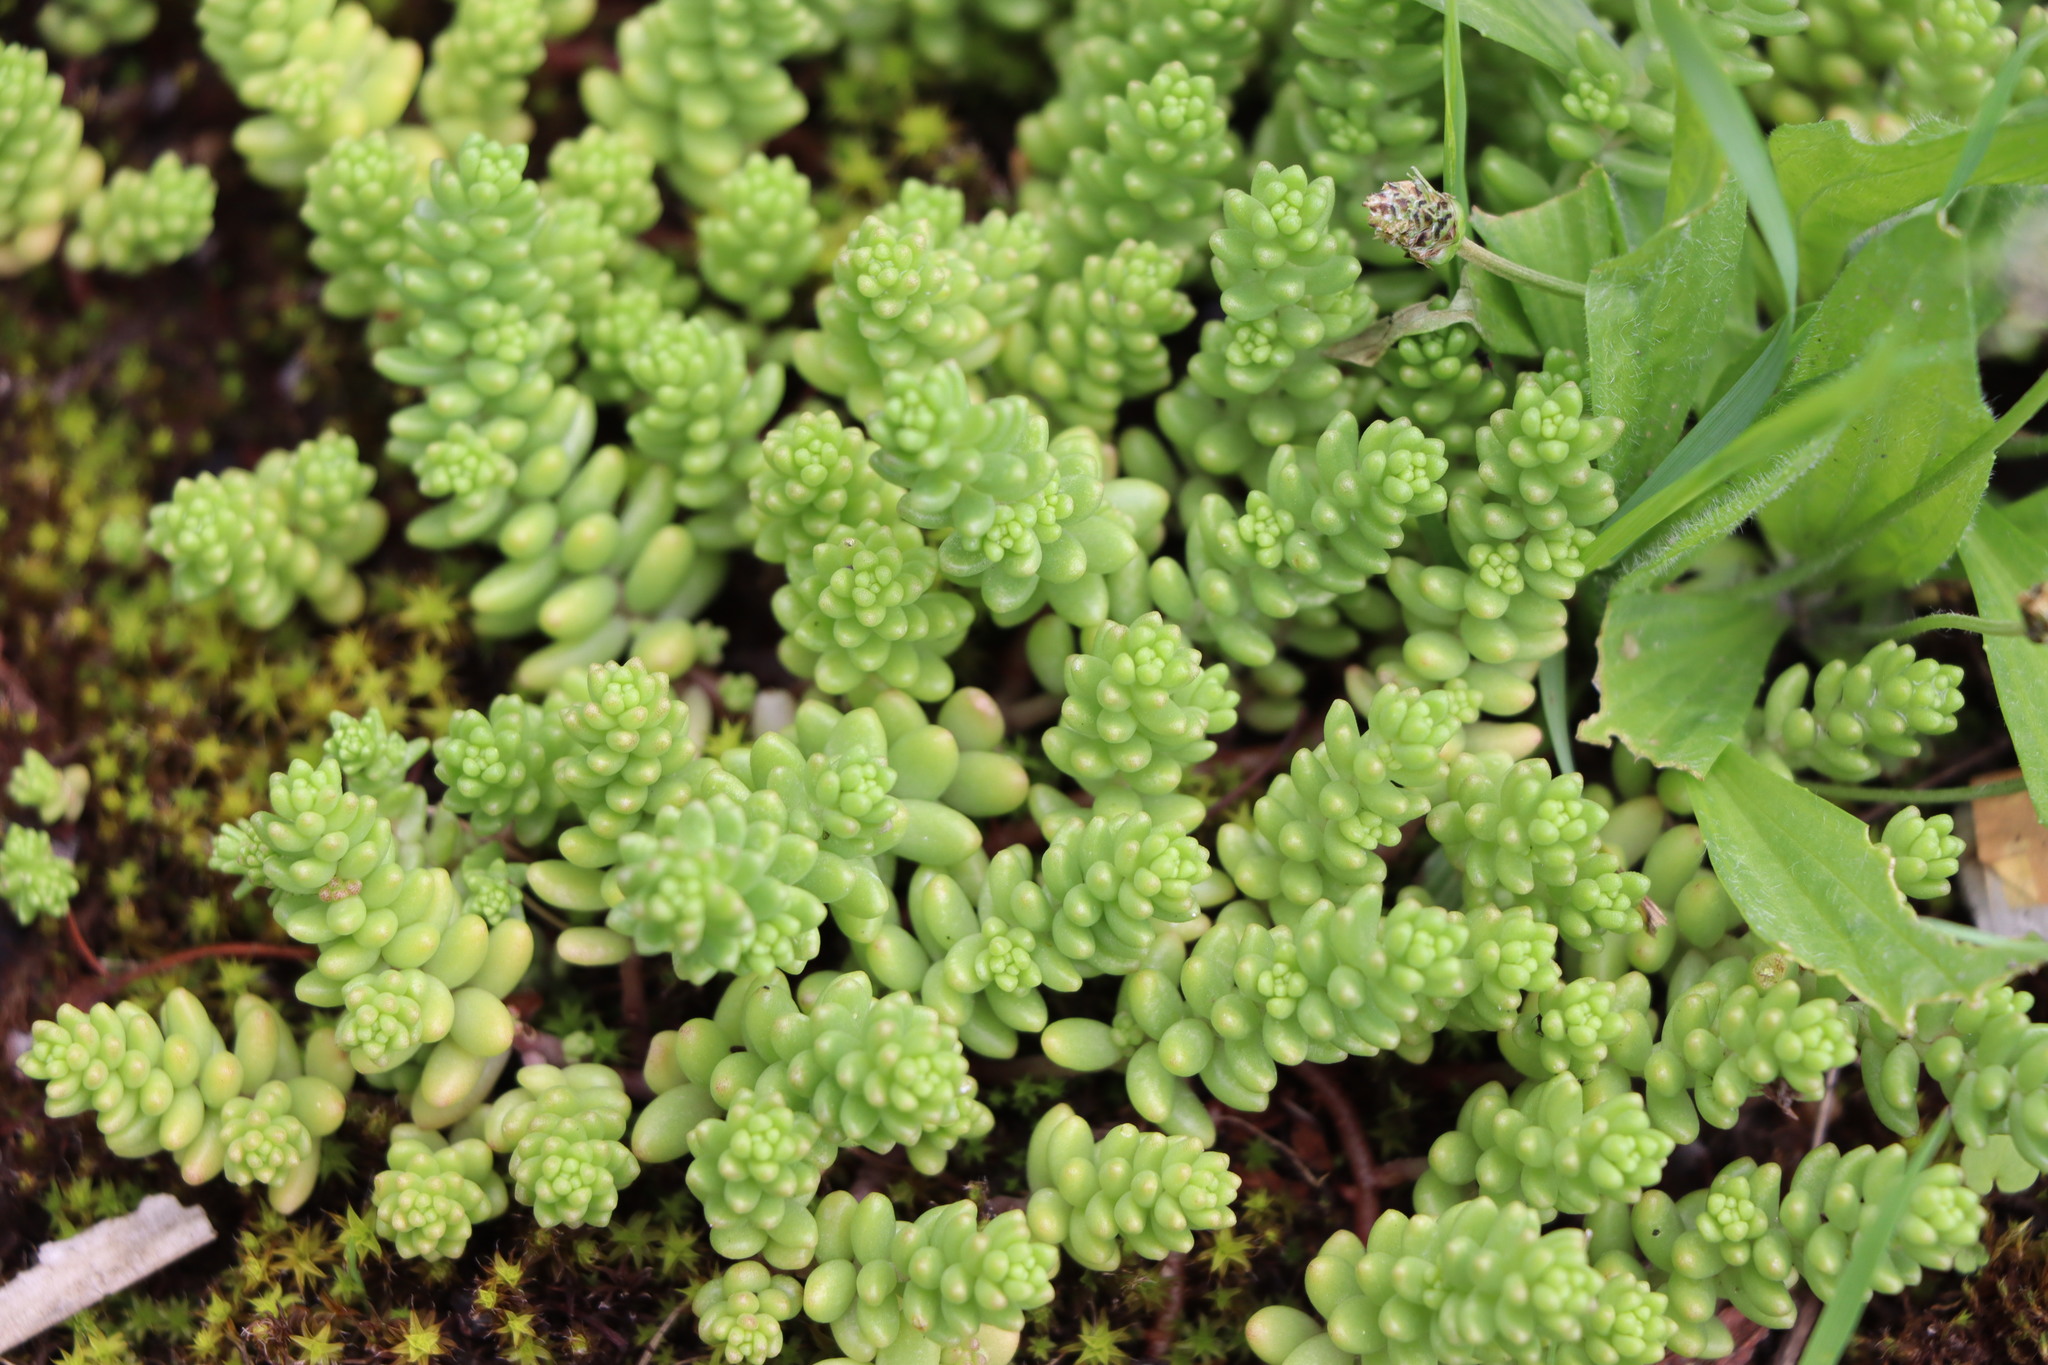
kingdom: Plantae
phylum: Tracheophyta
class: Magnoliopsida
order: Saxifragales
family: Crassulaceae
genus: Sedum
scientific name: Sedum album
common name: White stonecrop
